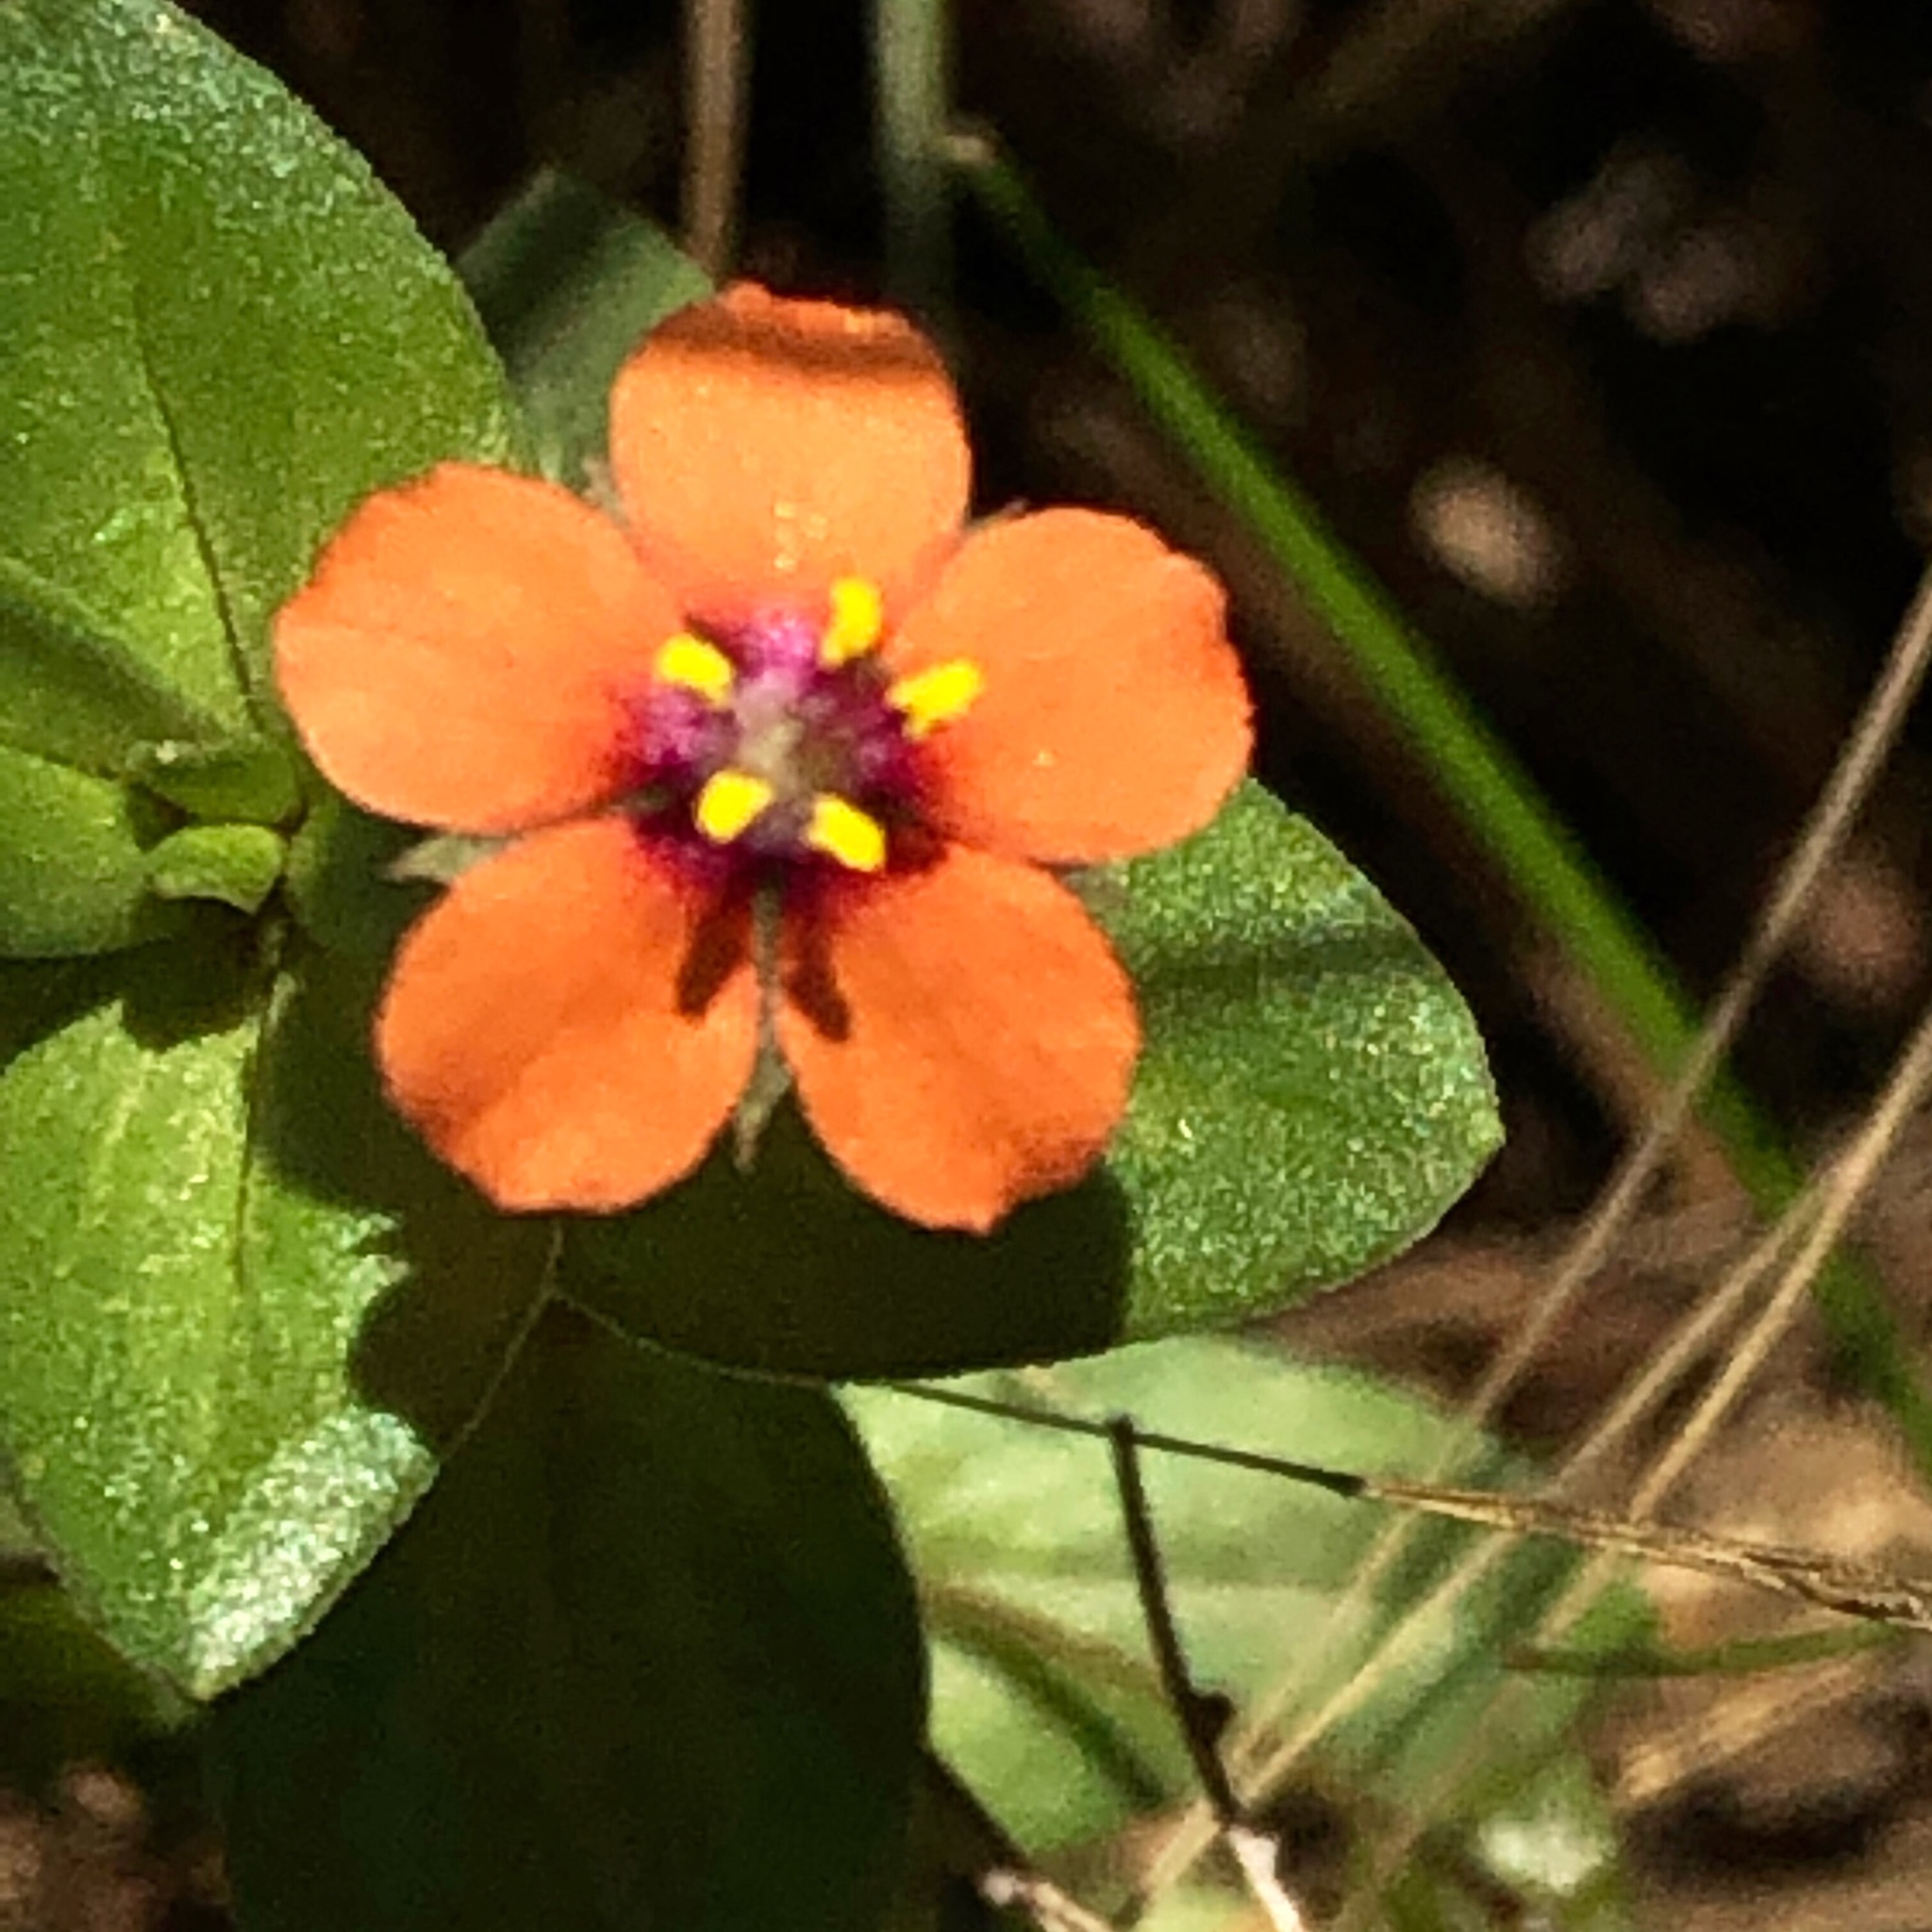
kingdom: Plantae
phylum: Tracheophyta
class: Magnoliopsida
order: Ericales
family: Primulaceae
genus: Lysimachia
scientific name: Lysimachia arvensis
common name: Scarlet pimpernel
